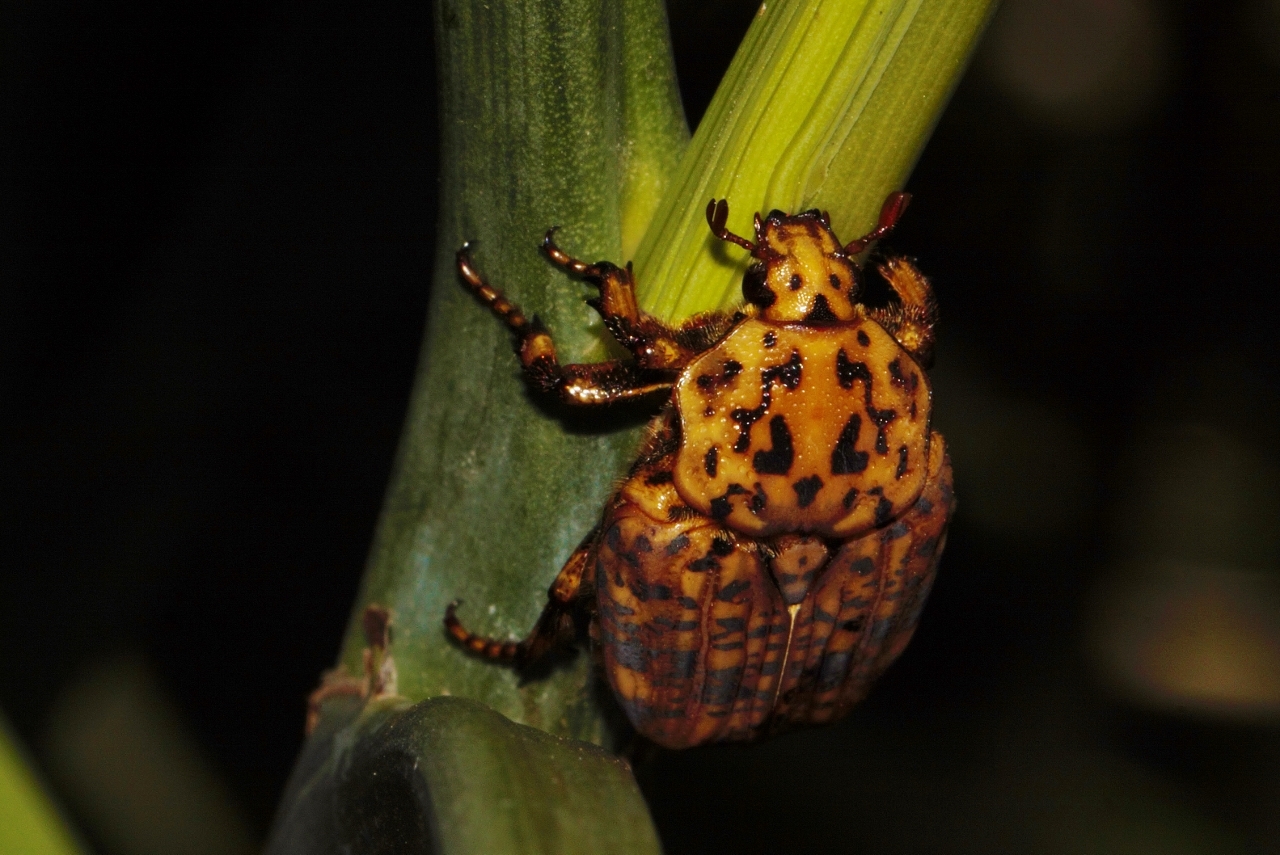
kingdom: Animalia
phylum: Arthropoda
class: Insecta
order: Coleoptera
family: Scarabaeidae
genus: Porphyronota
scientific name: Porphyronota maculatissima
